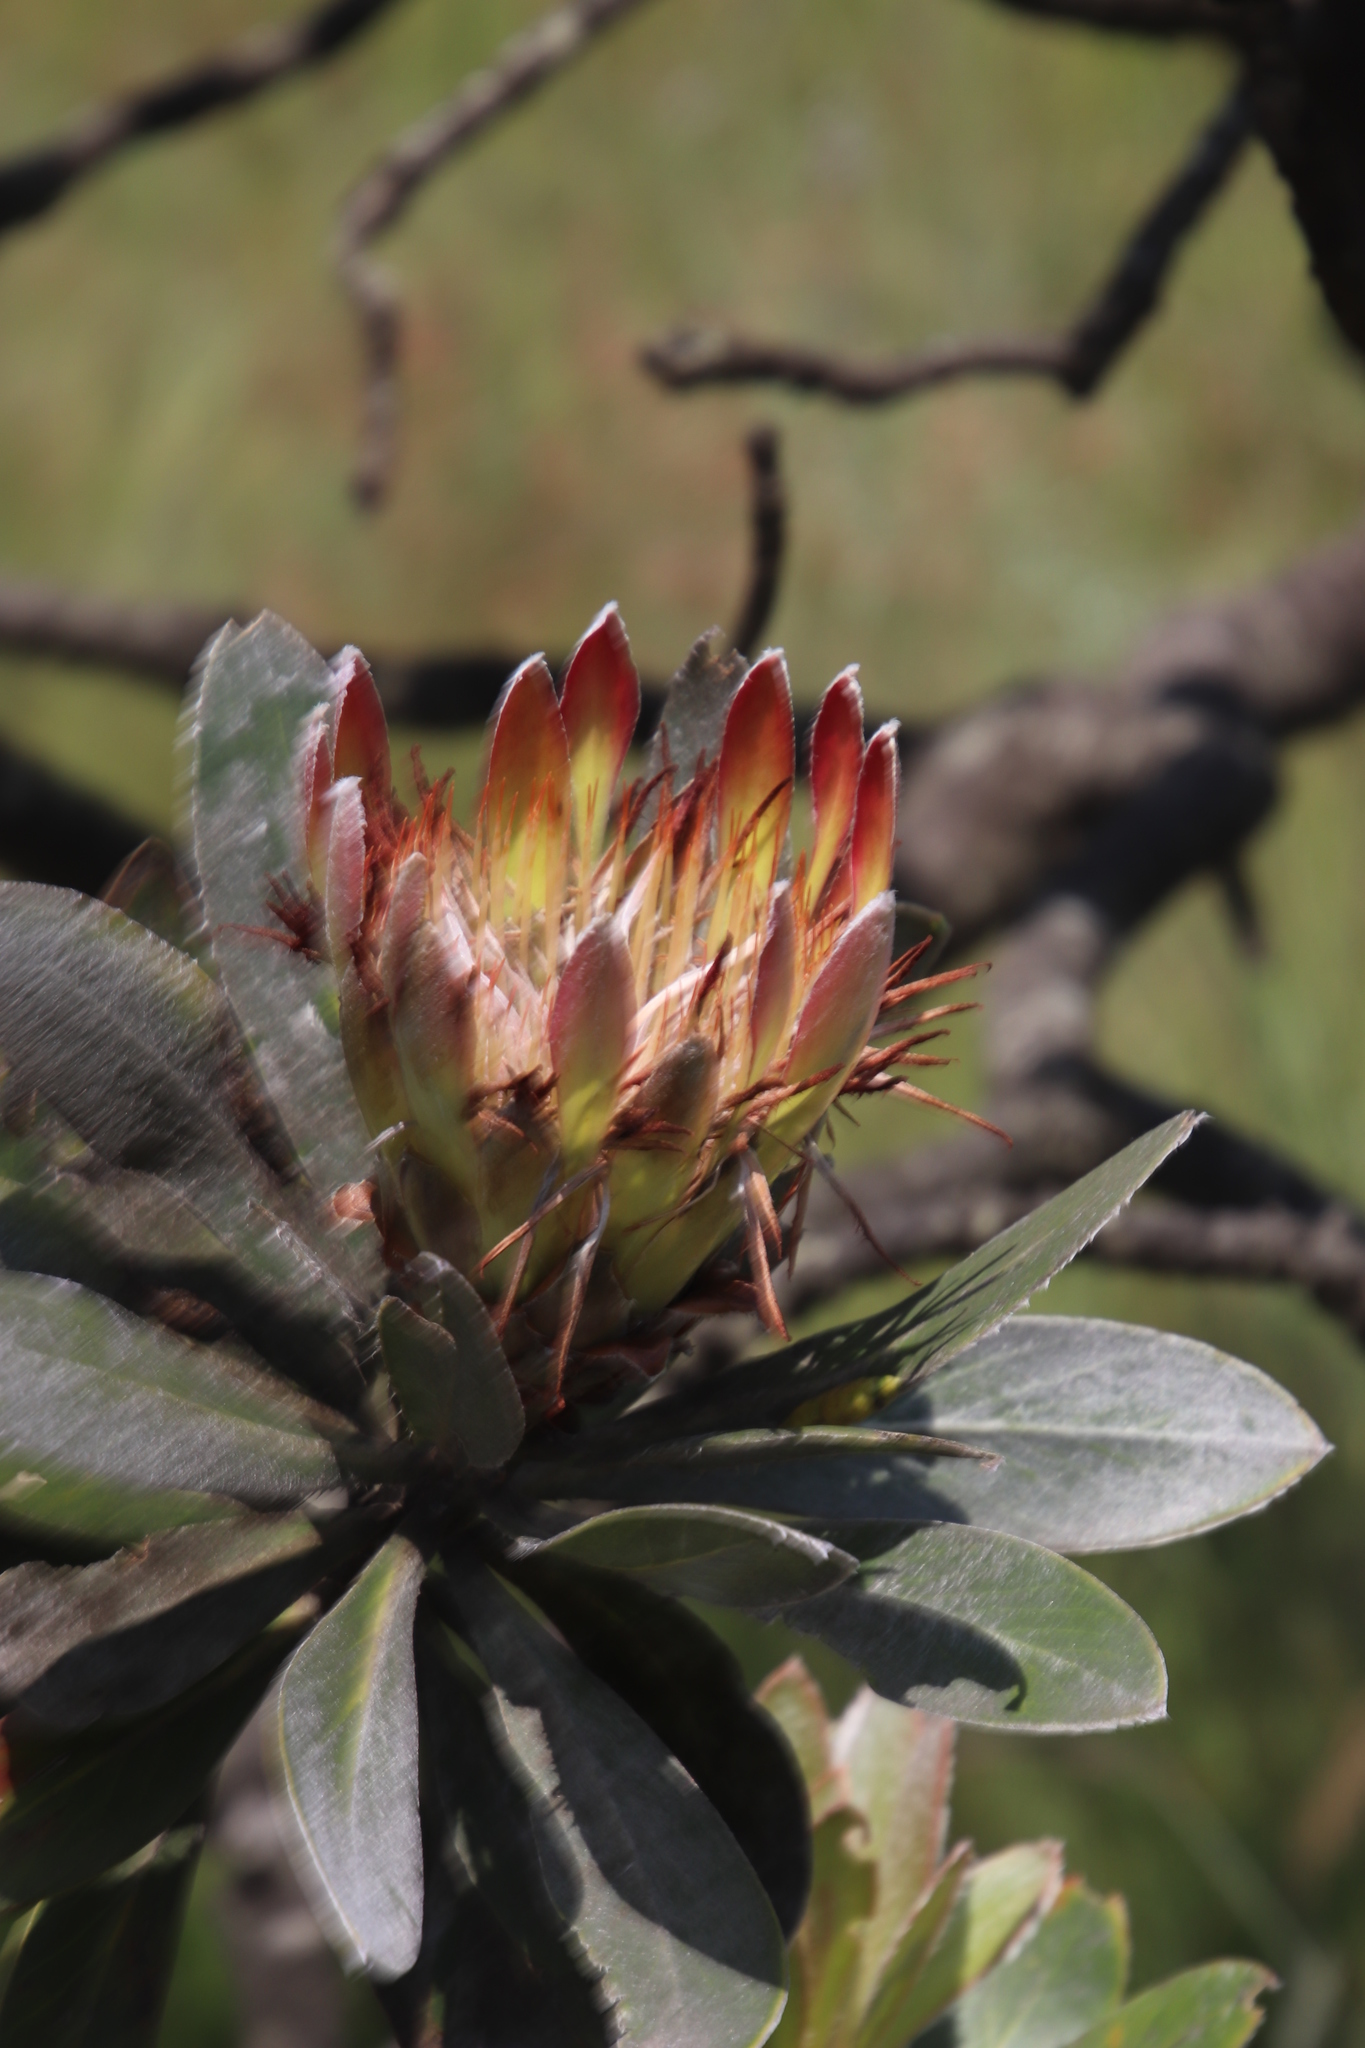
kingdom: Plantae
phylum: Tracheophyta
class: Magnoliopsida
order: Proteales
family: Proteaceae
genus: Protea
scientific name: Protea roupelliae
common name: Silver sugarbush
